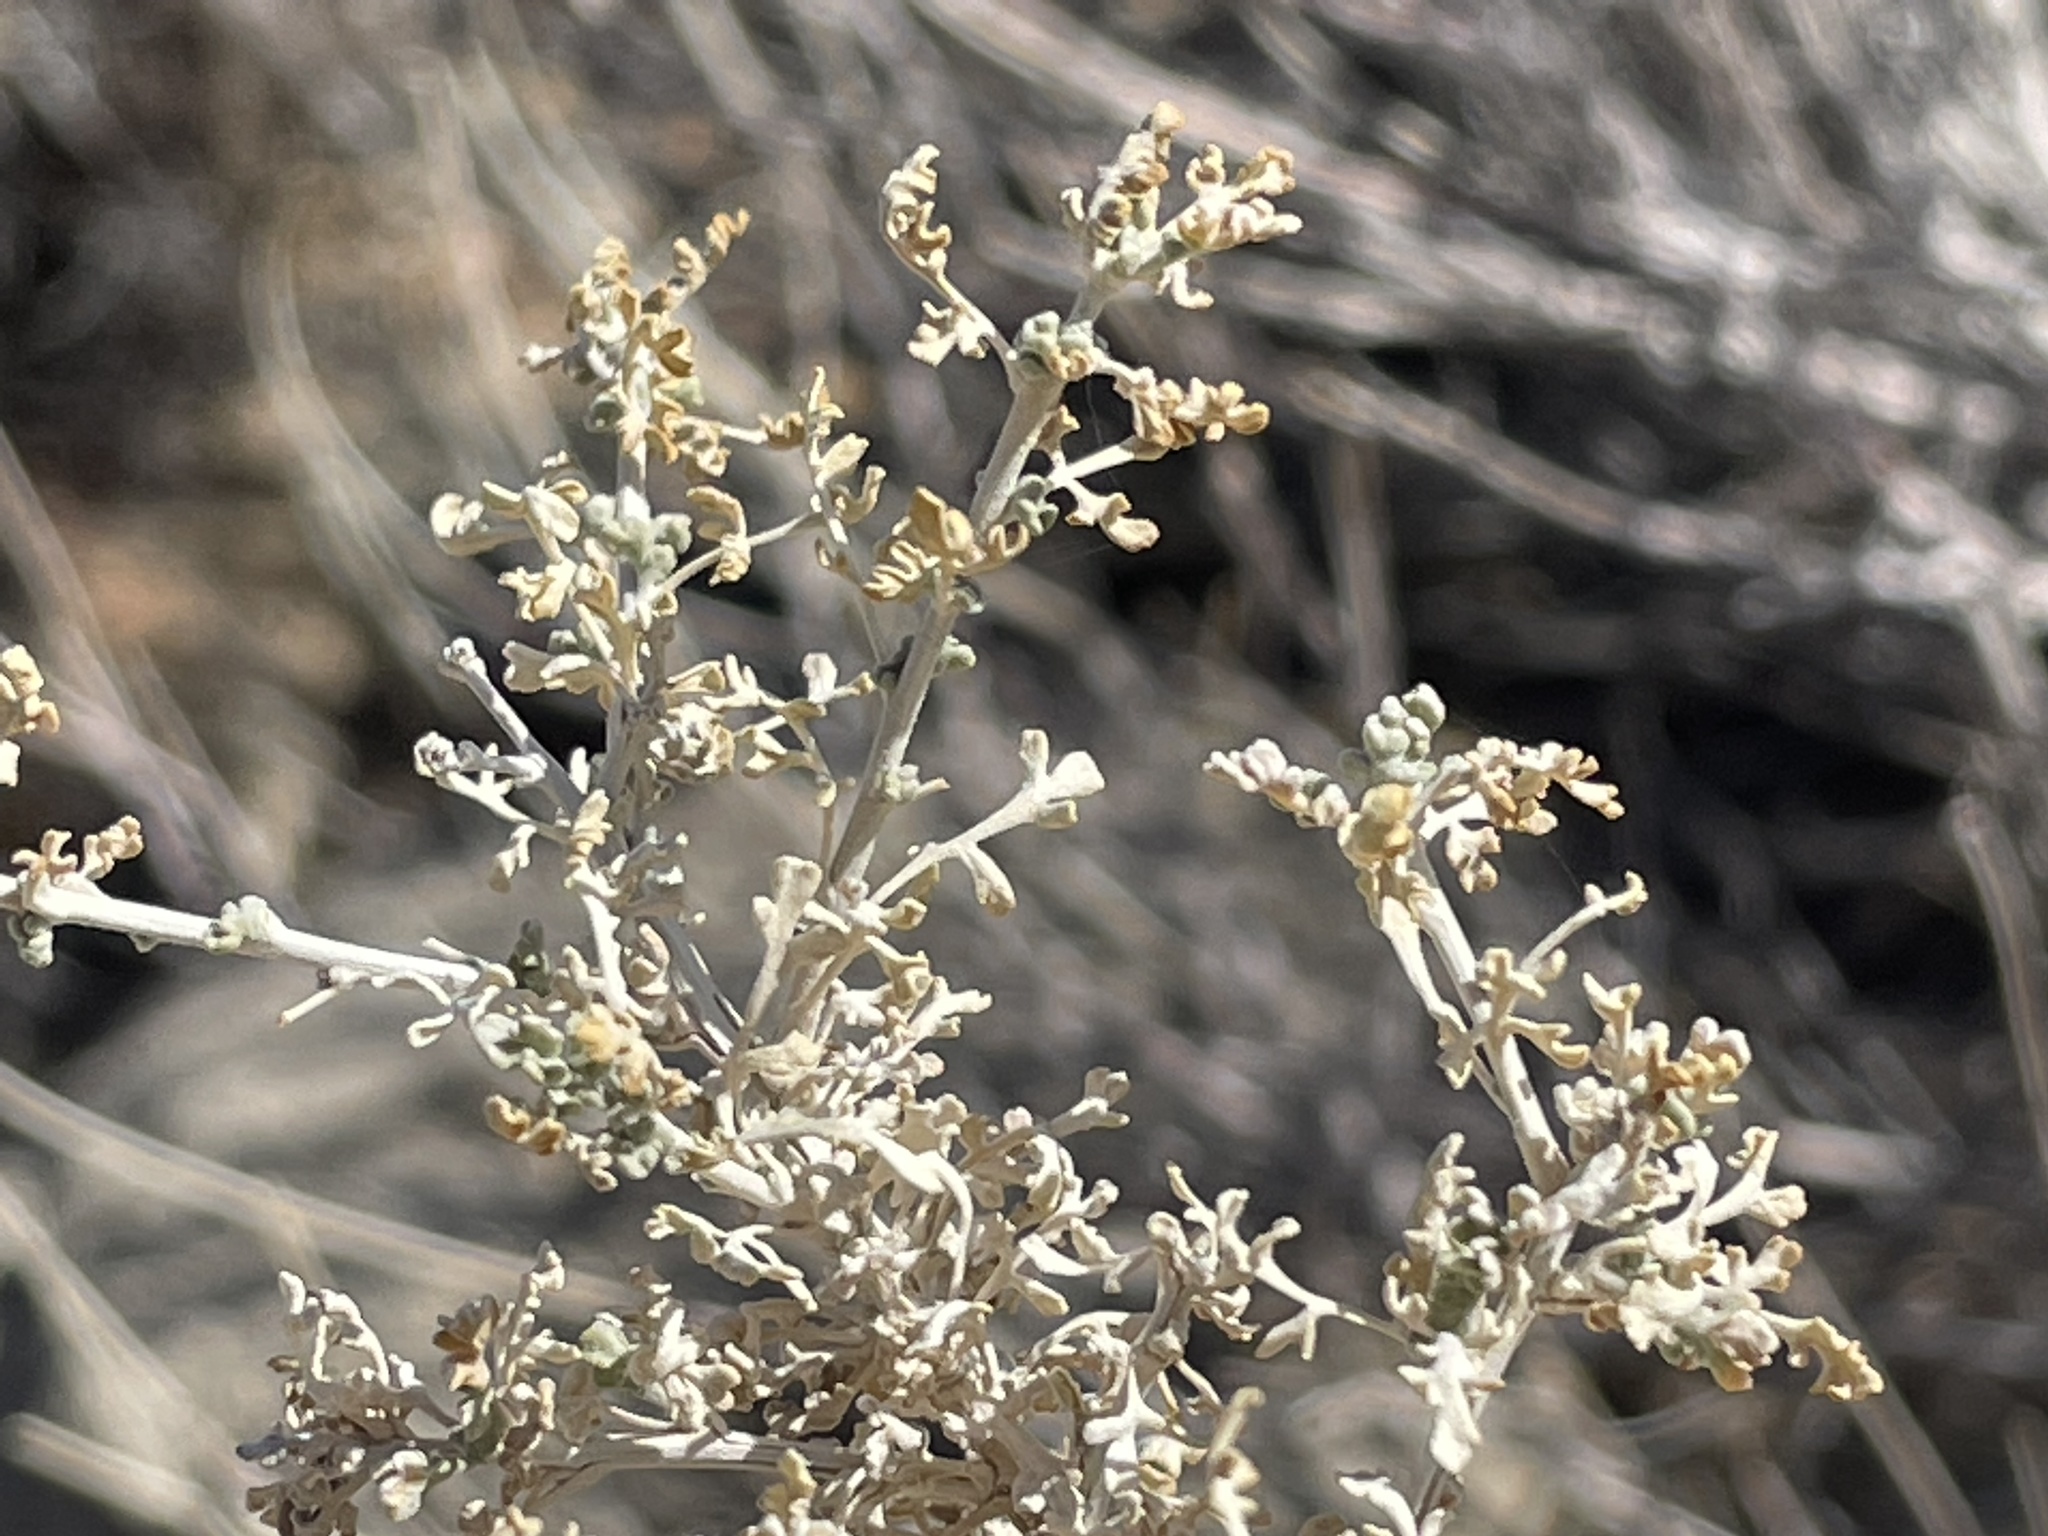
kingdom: Plantae
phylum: Tracheophyta
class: Magnoliopsida
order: Asterales
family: Asteraceae
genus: Ambrosia
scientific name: Ambrosia dumosa
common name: Bur-sage
